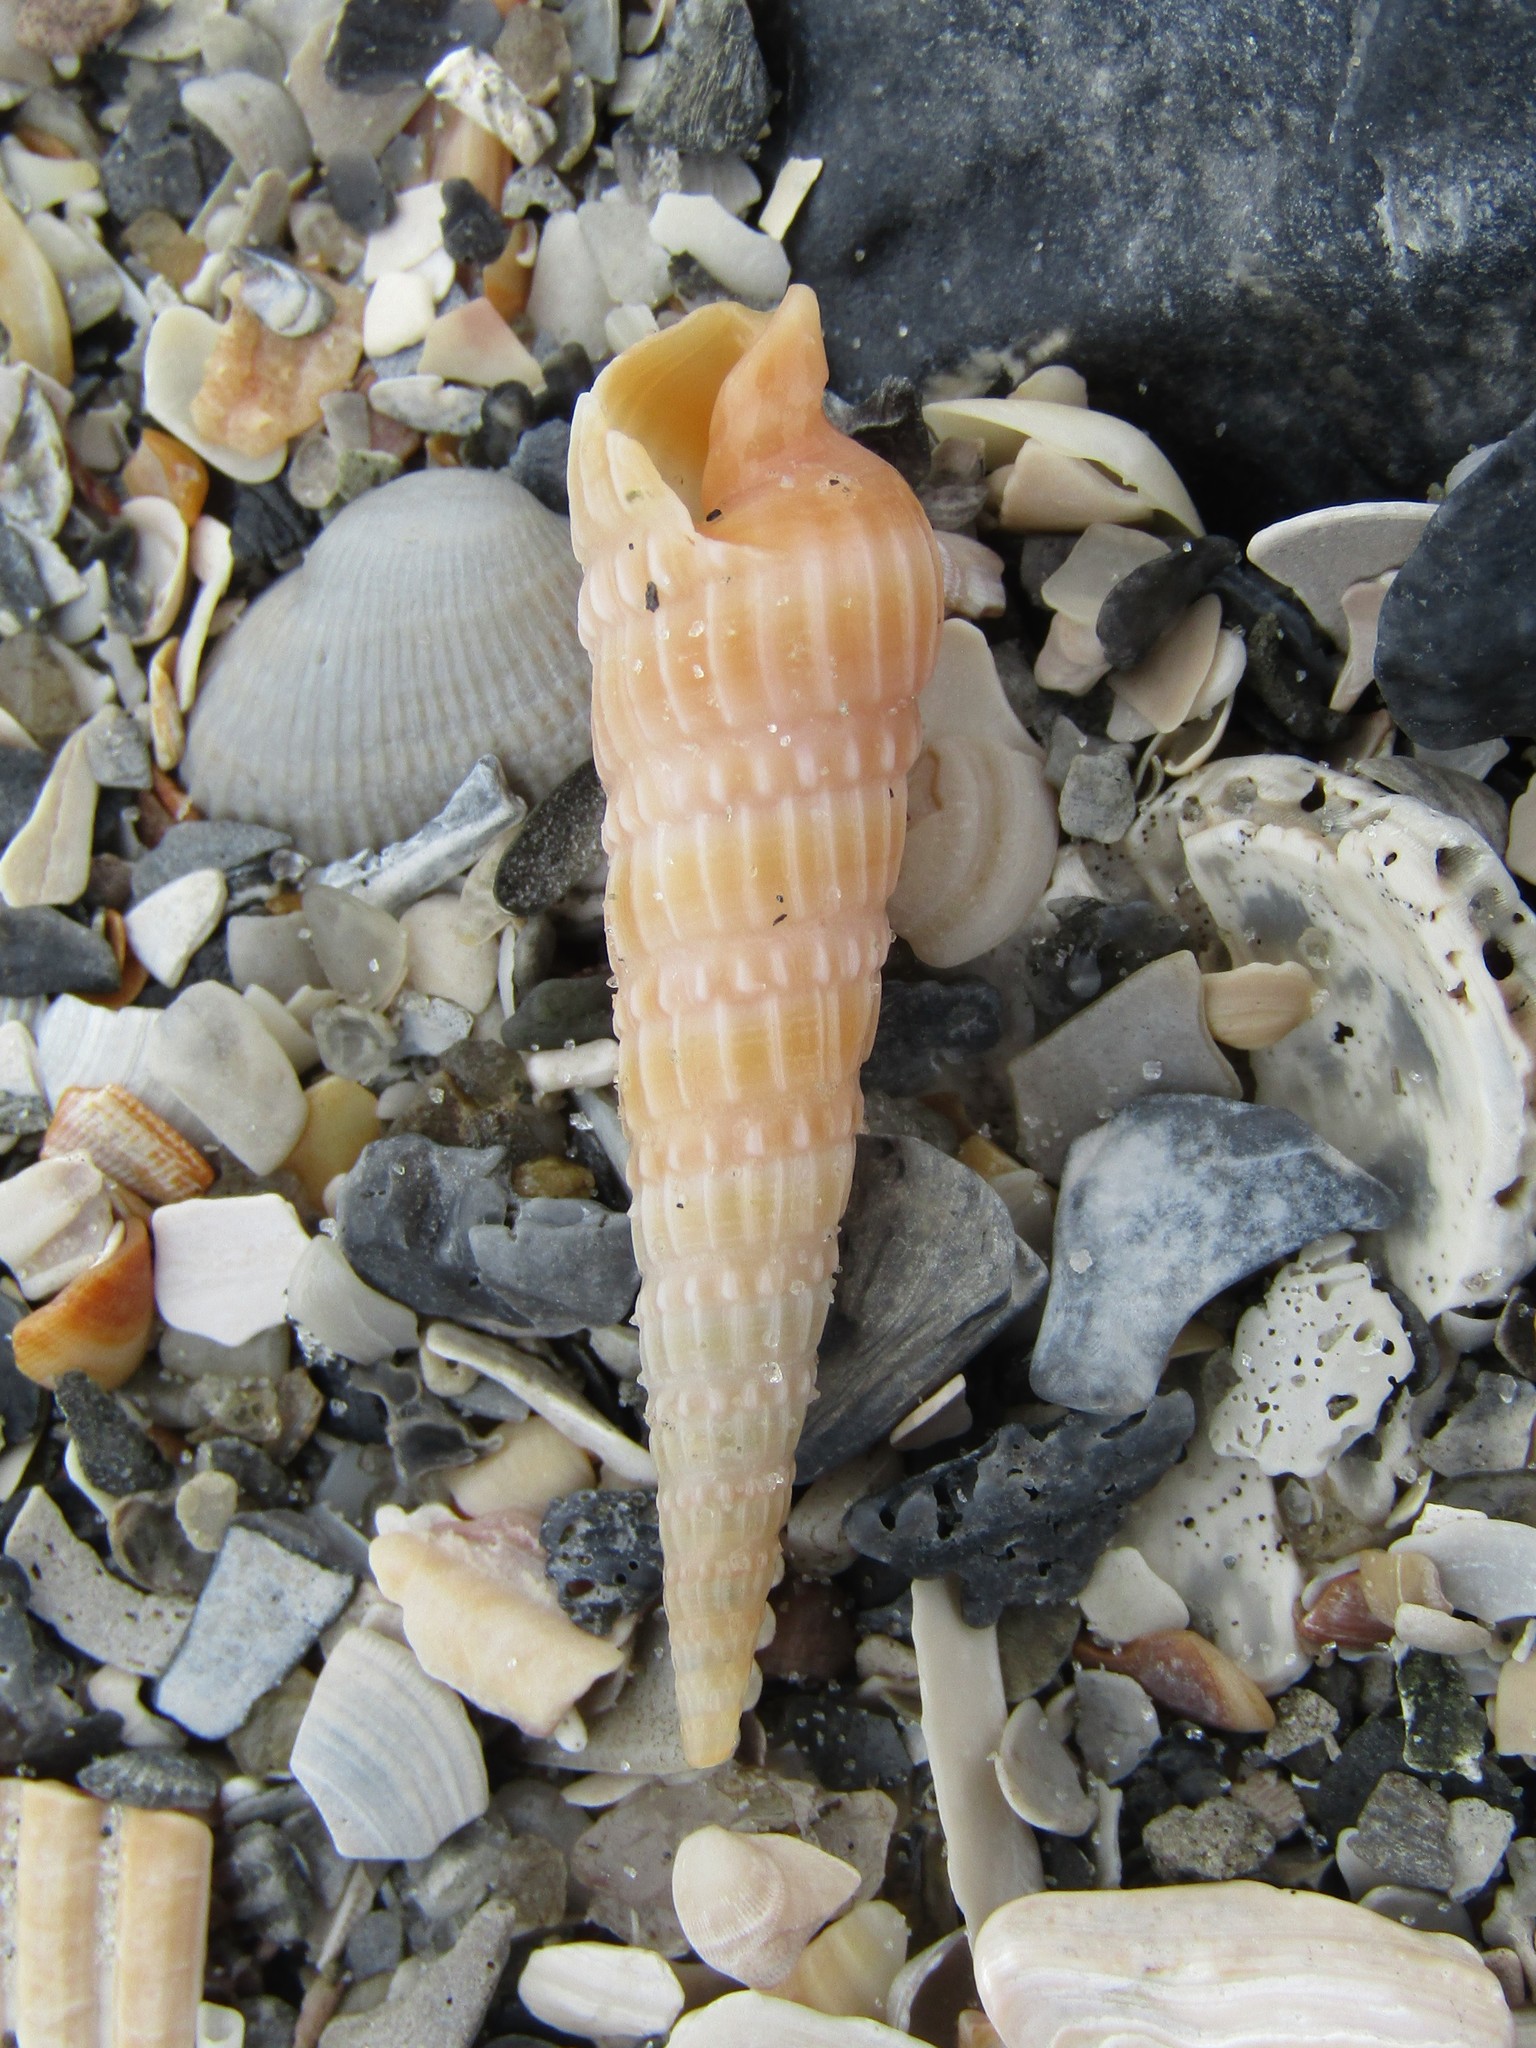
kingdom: Animalia
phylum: Mollusca
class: Gastropoda
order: Neogastropoda
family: Terebridae
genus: Neoterebra
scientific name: Neoterebra dislocata
